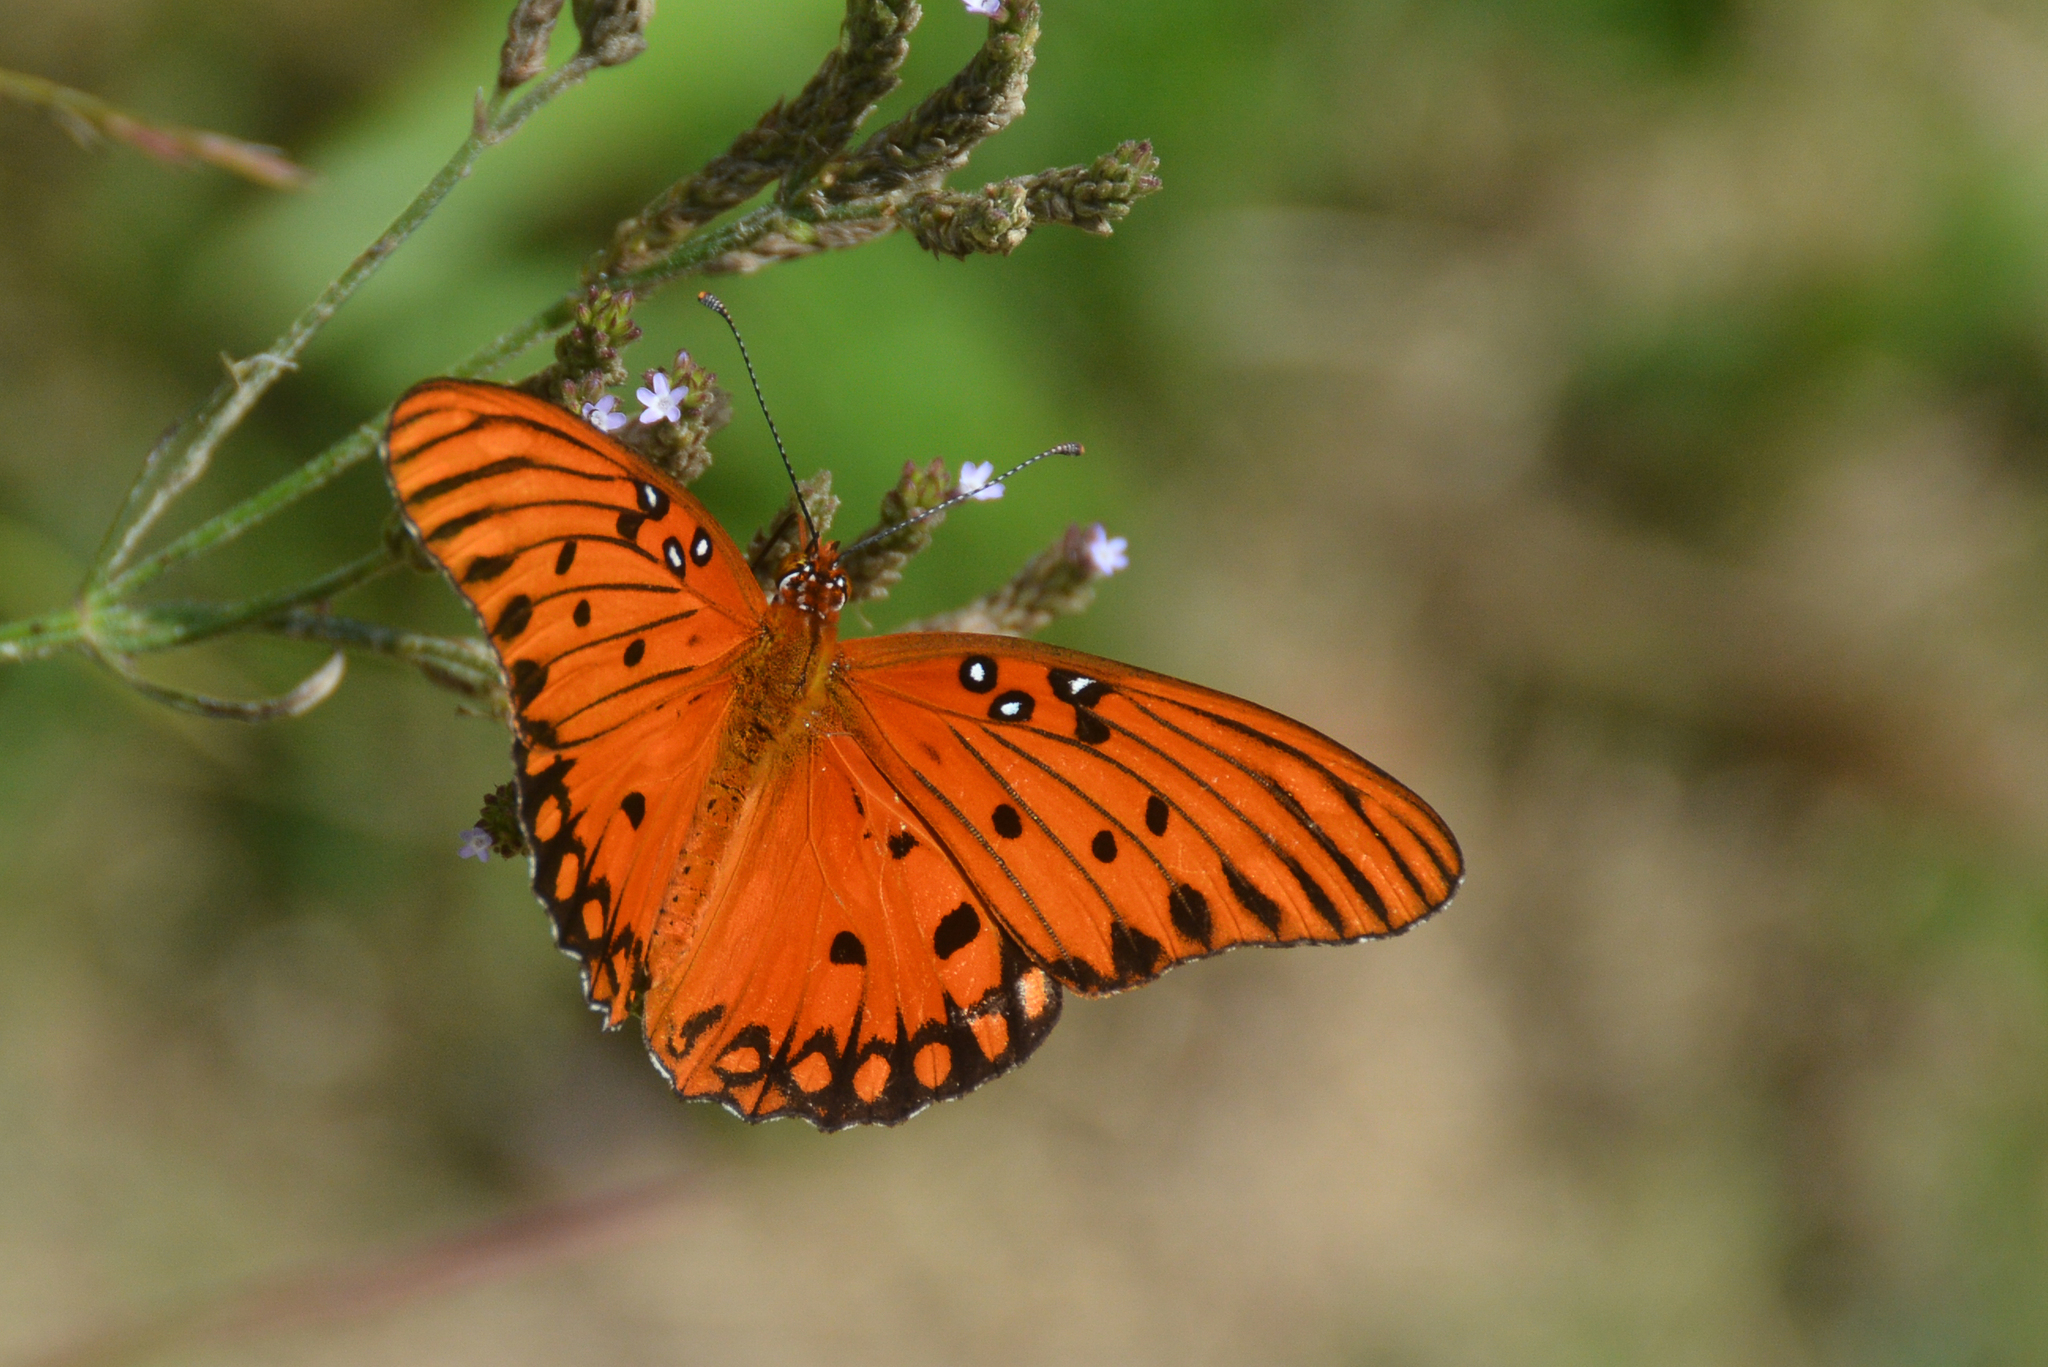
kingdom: Animalia
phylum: Arthropoda
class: Insecta
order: Lepidoptera
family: Nymphalidae
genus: Dione
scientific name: Dione vanillae
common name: Gulf fritillary
